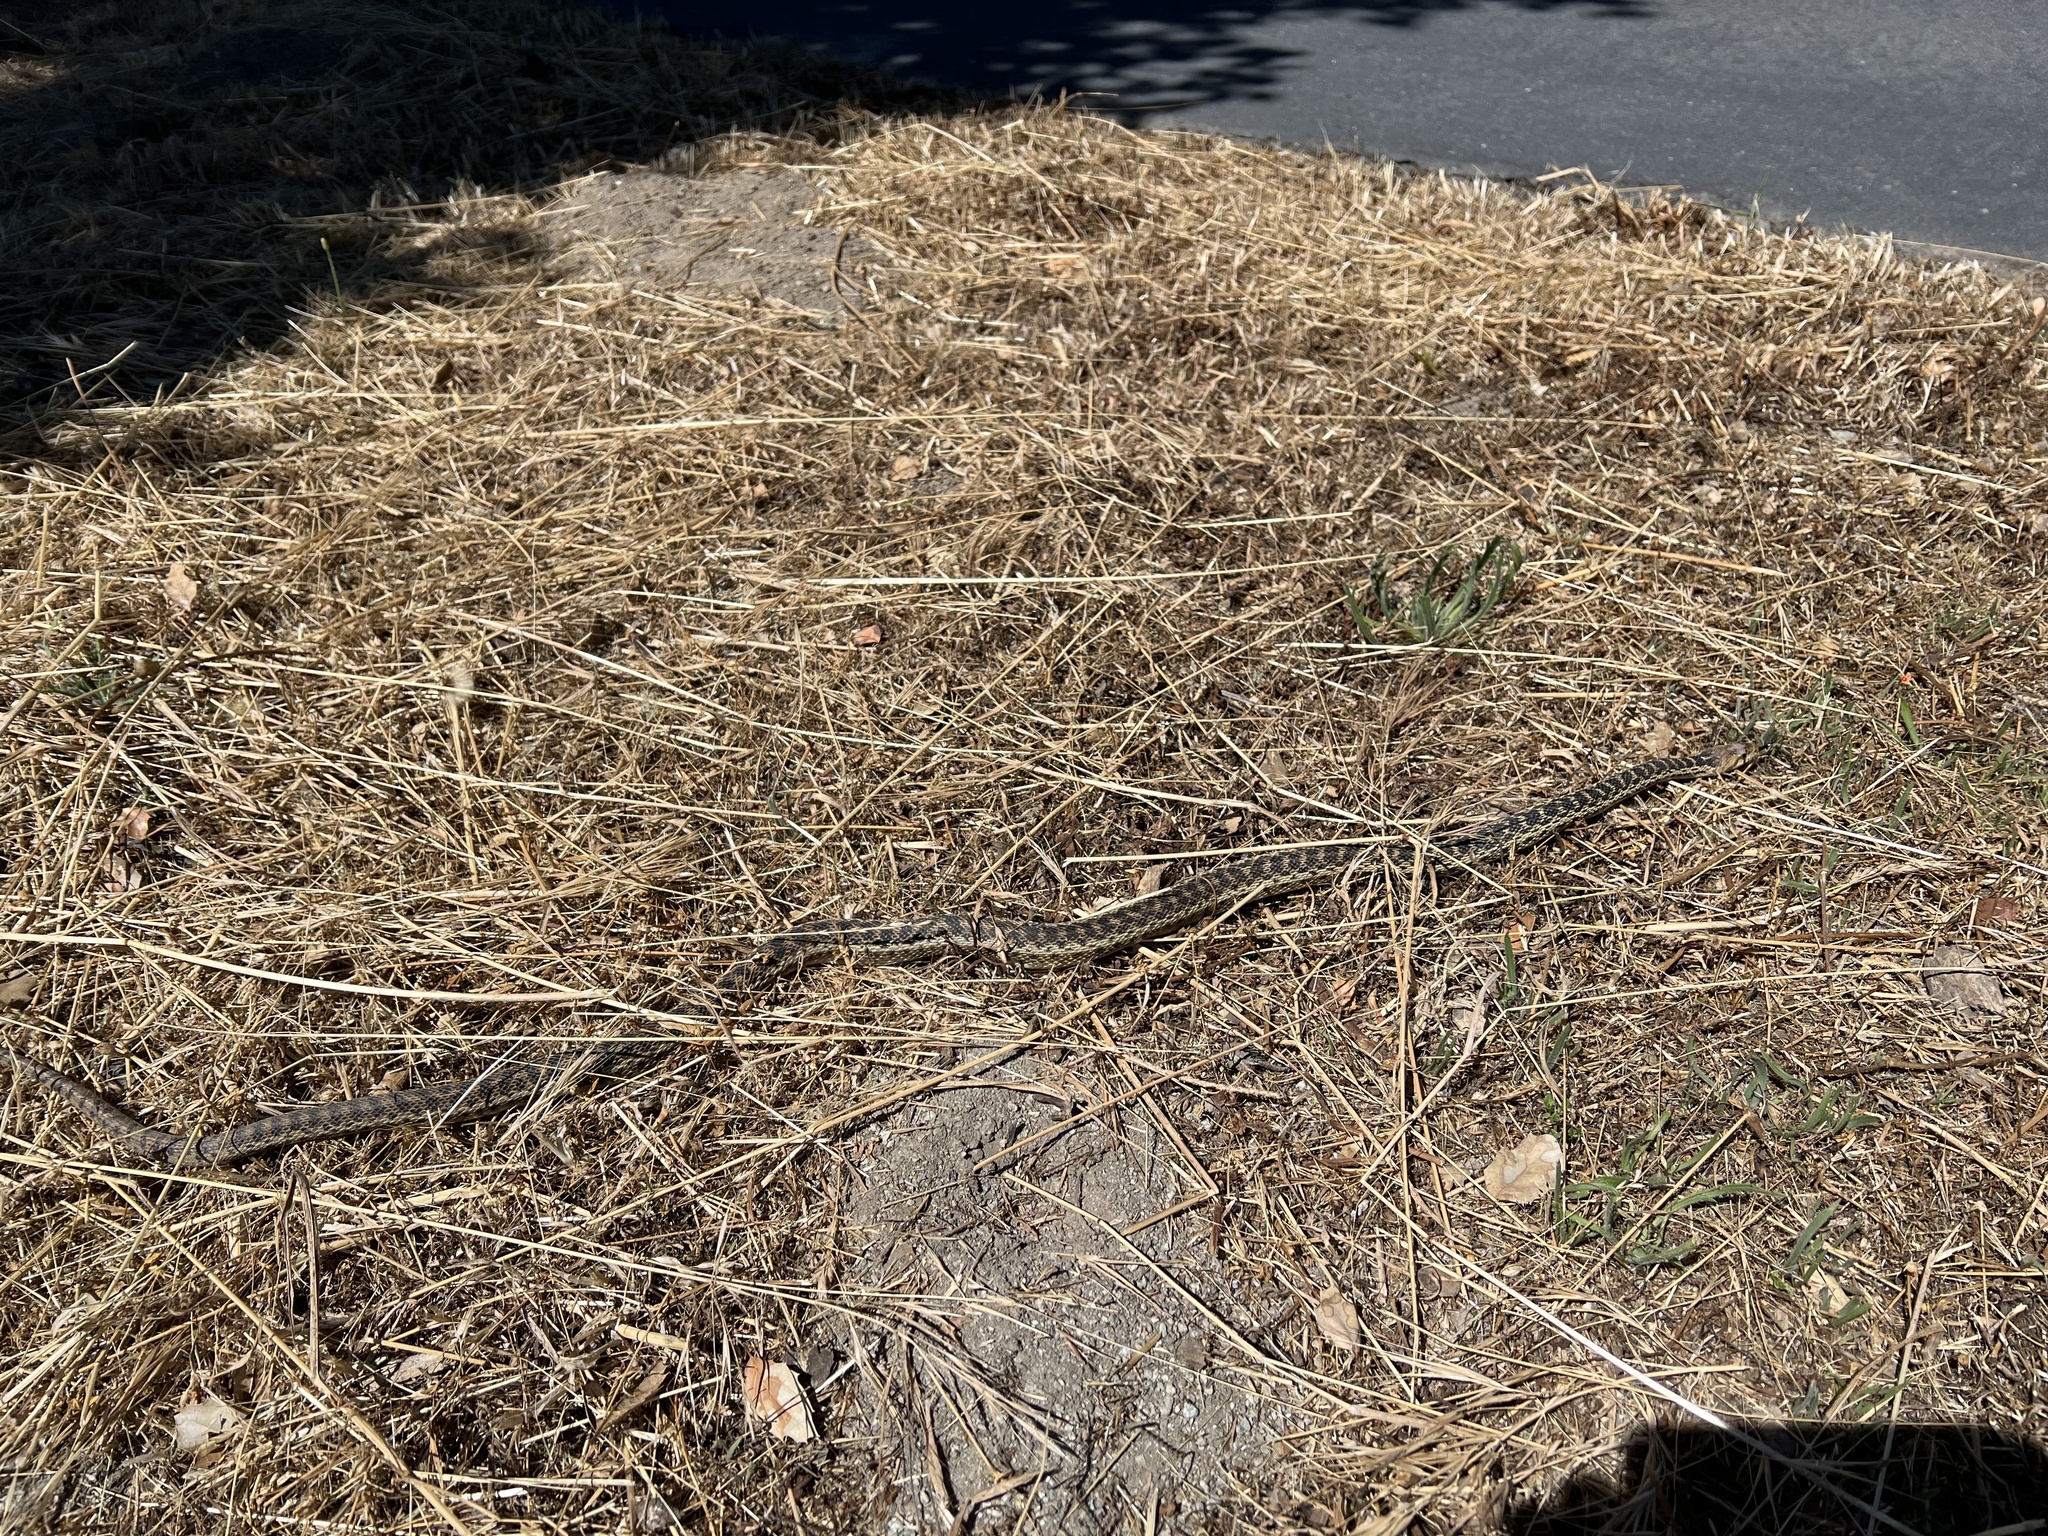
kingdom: Animalia
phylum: Chordata
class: Squamata
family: Colubridae
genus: Pituophis
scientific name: Pituophis catenifer
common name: Gopher snake
